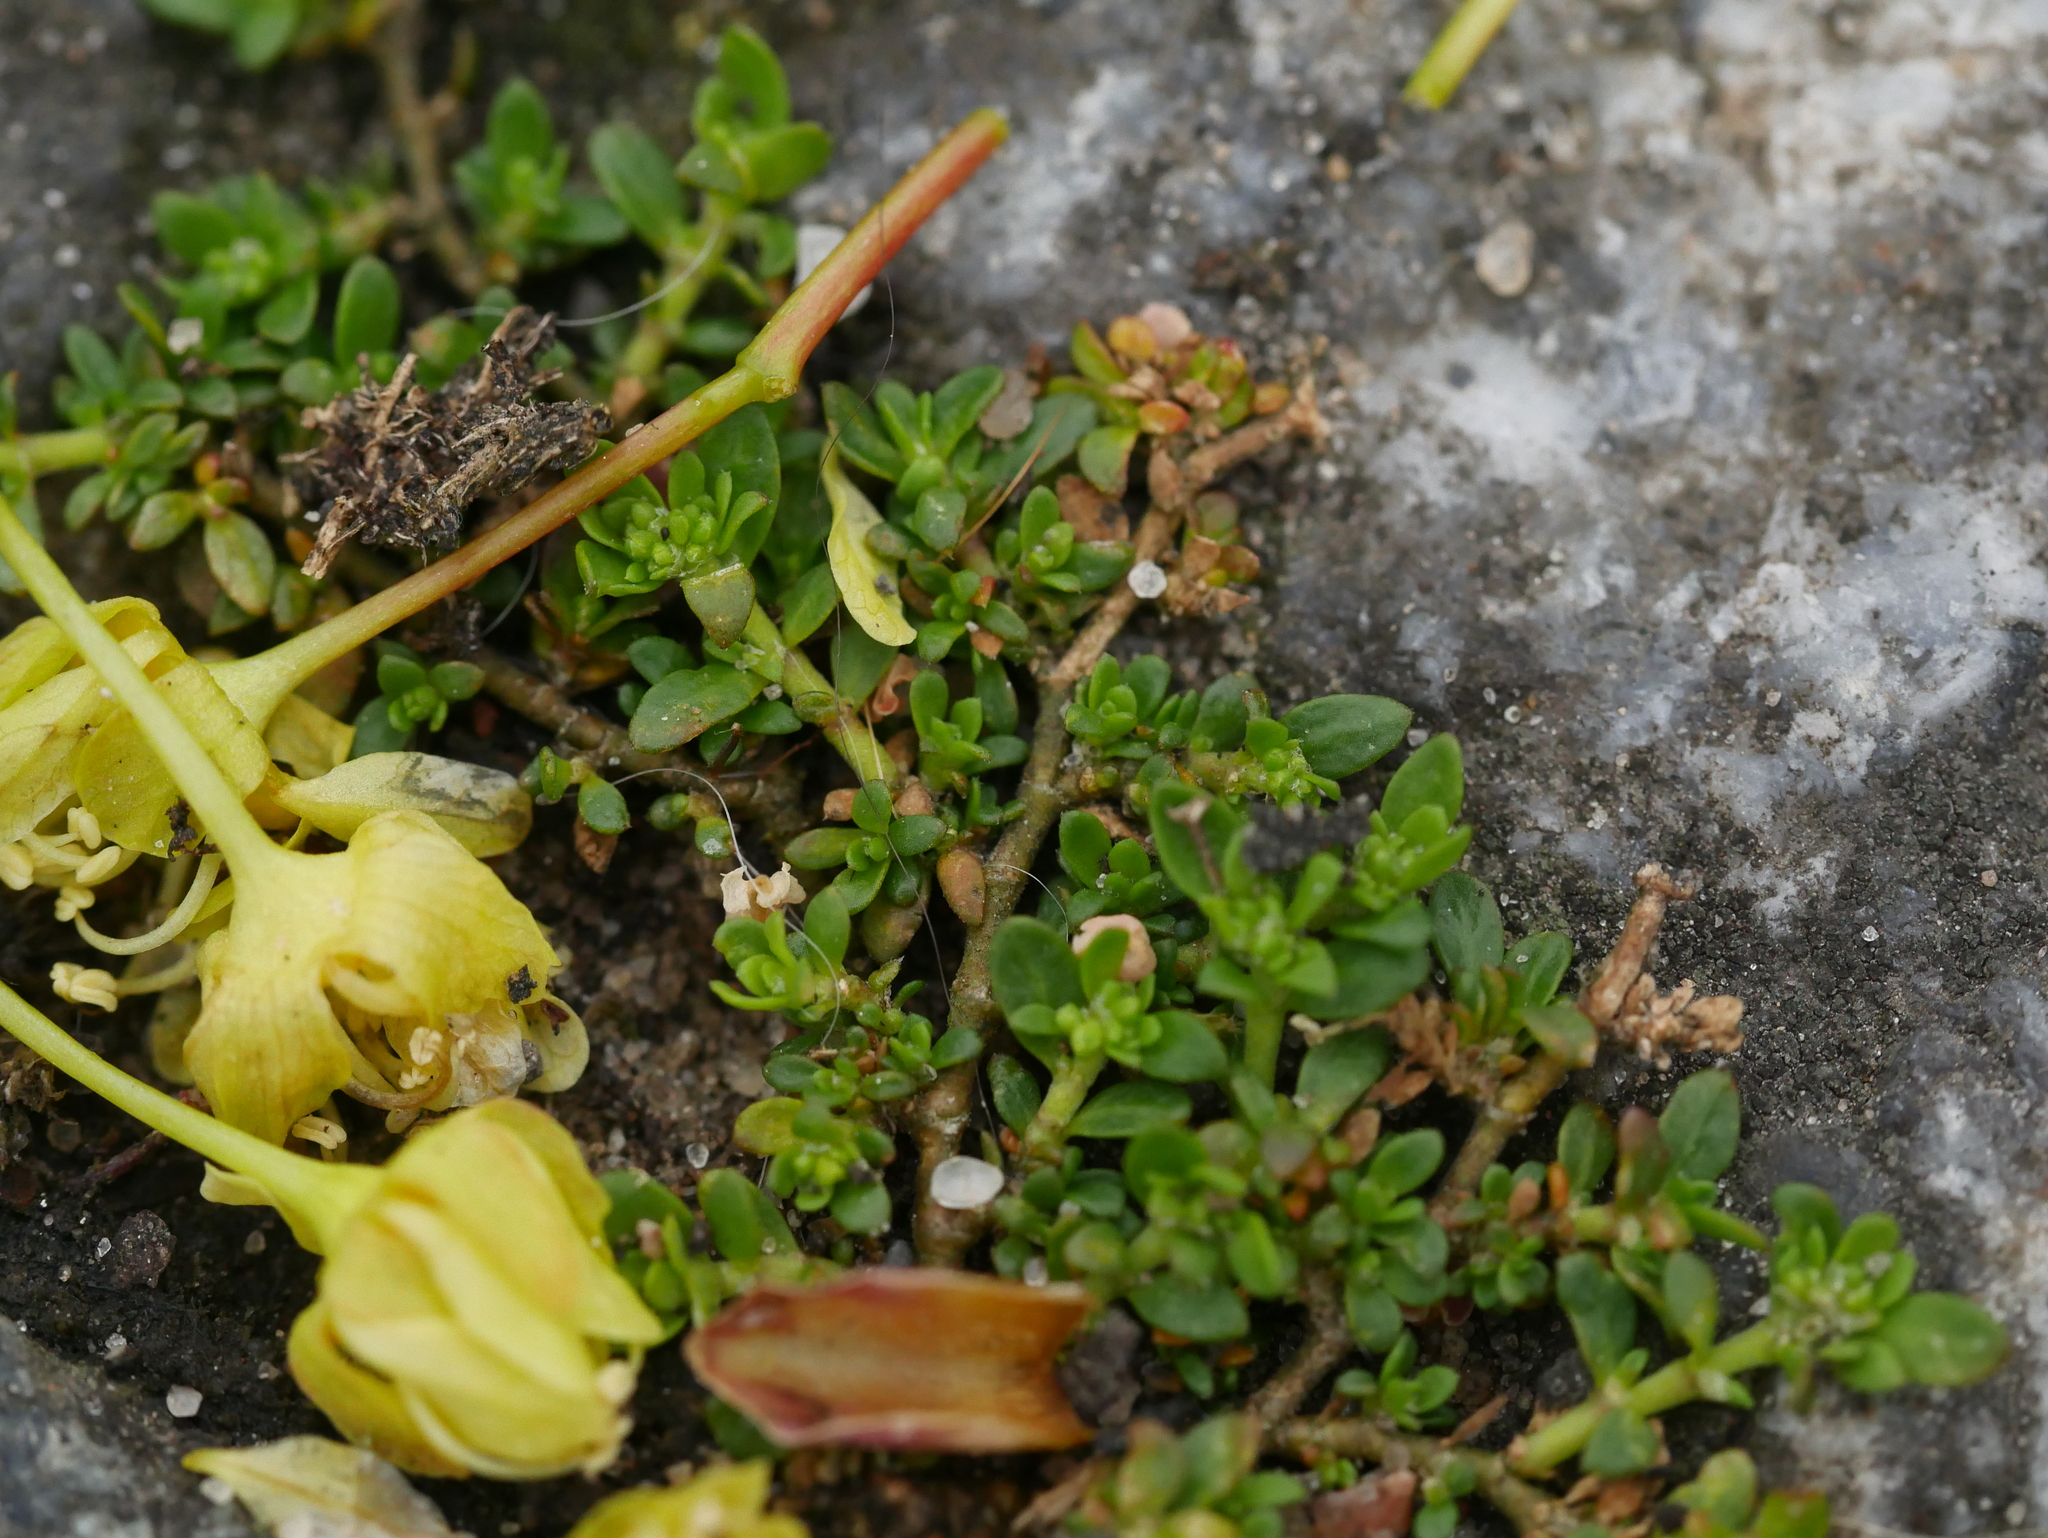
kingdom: Plantae
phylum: Tracheophyta
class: Magnoliopsida
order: Caryophyllales
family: Caryophyllaceae
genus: Herniaria
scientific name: Herniaria glabra
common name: Smooth rupturewort
